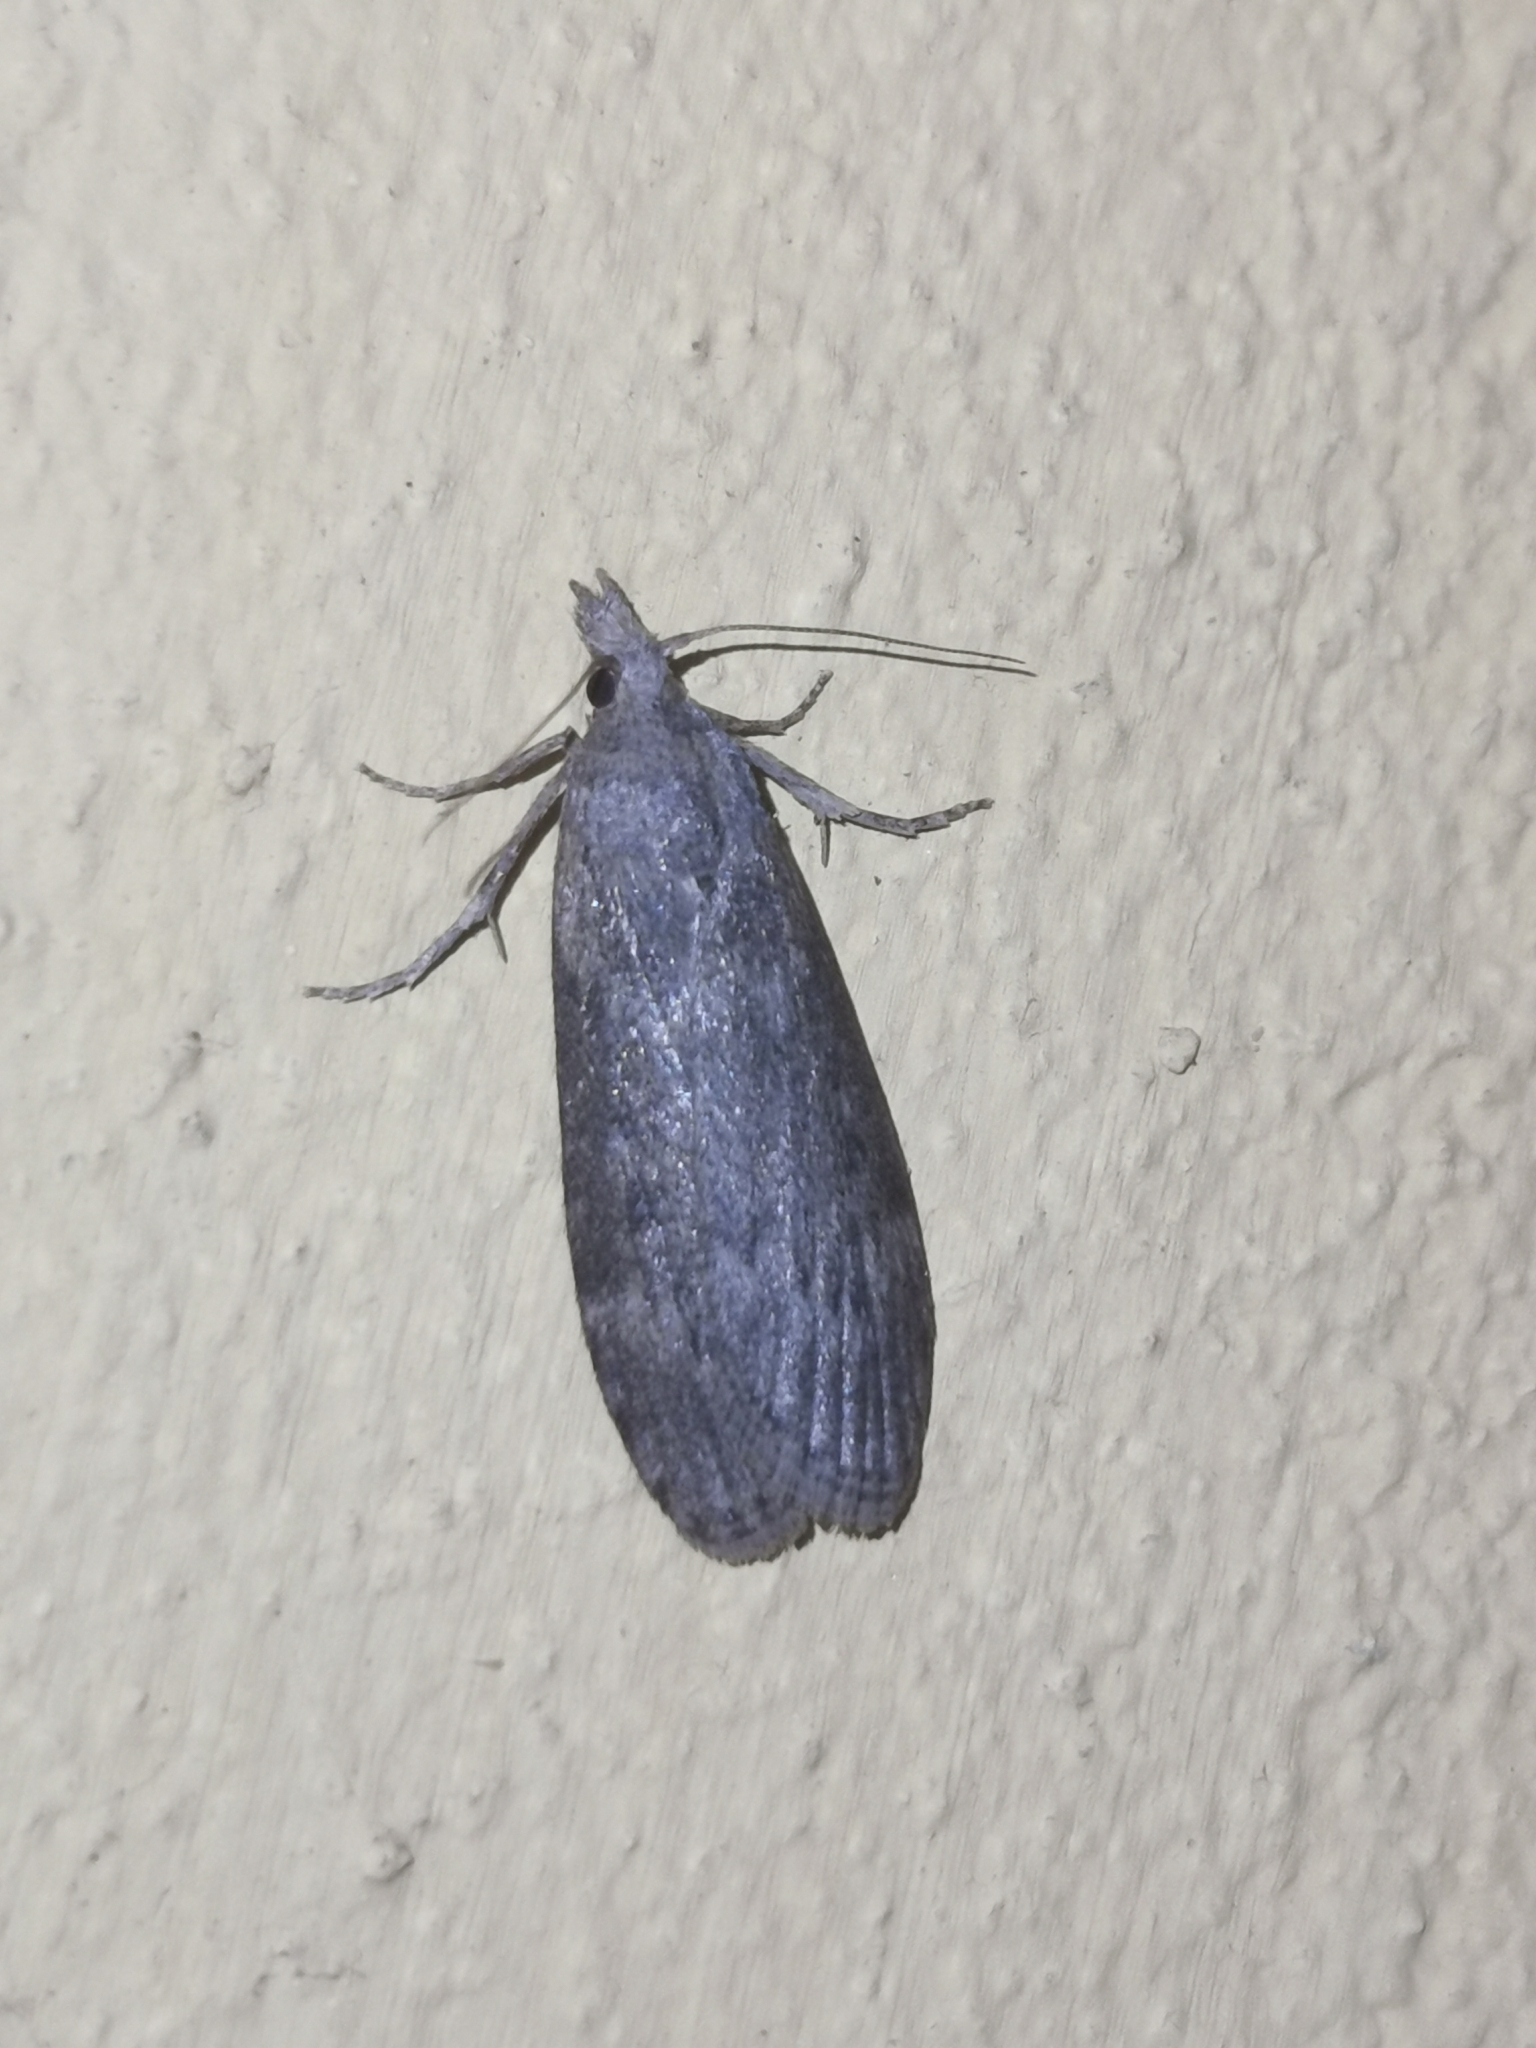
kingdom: Animalia
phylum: Arthropoda
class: Insecta
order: Lepidoptera
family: Pyralidae
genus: Lamoria
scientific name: Lamoria anella
